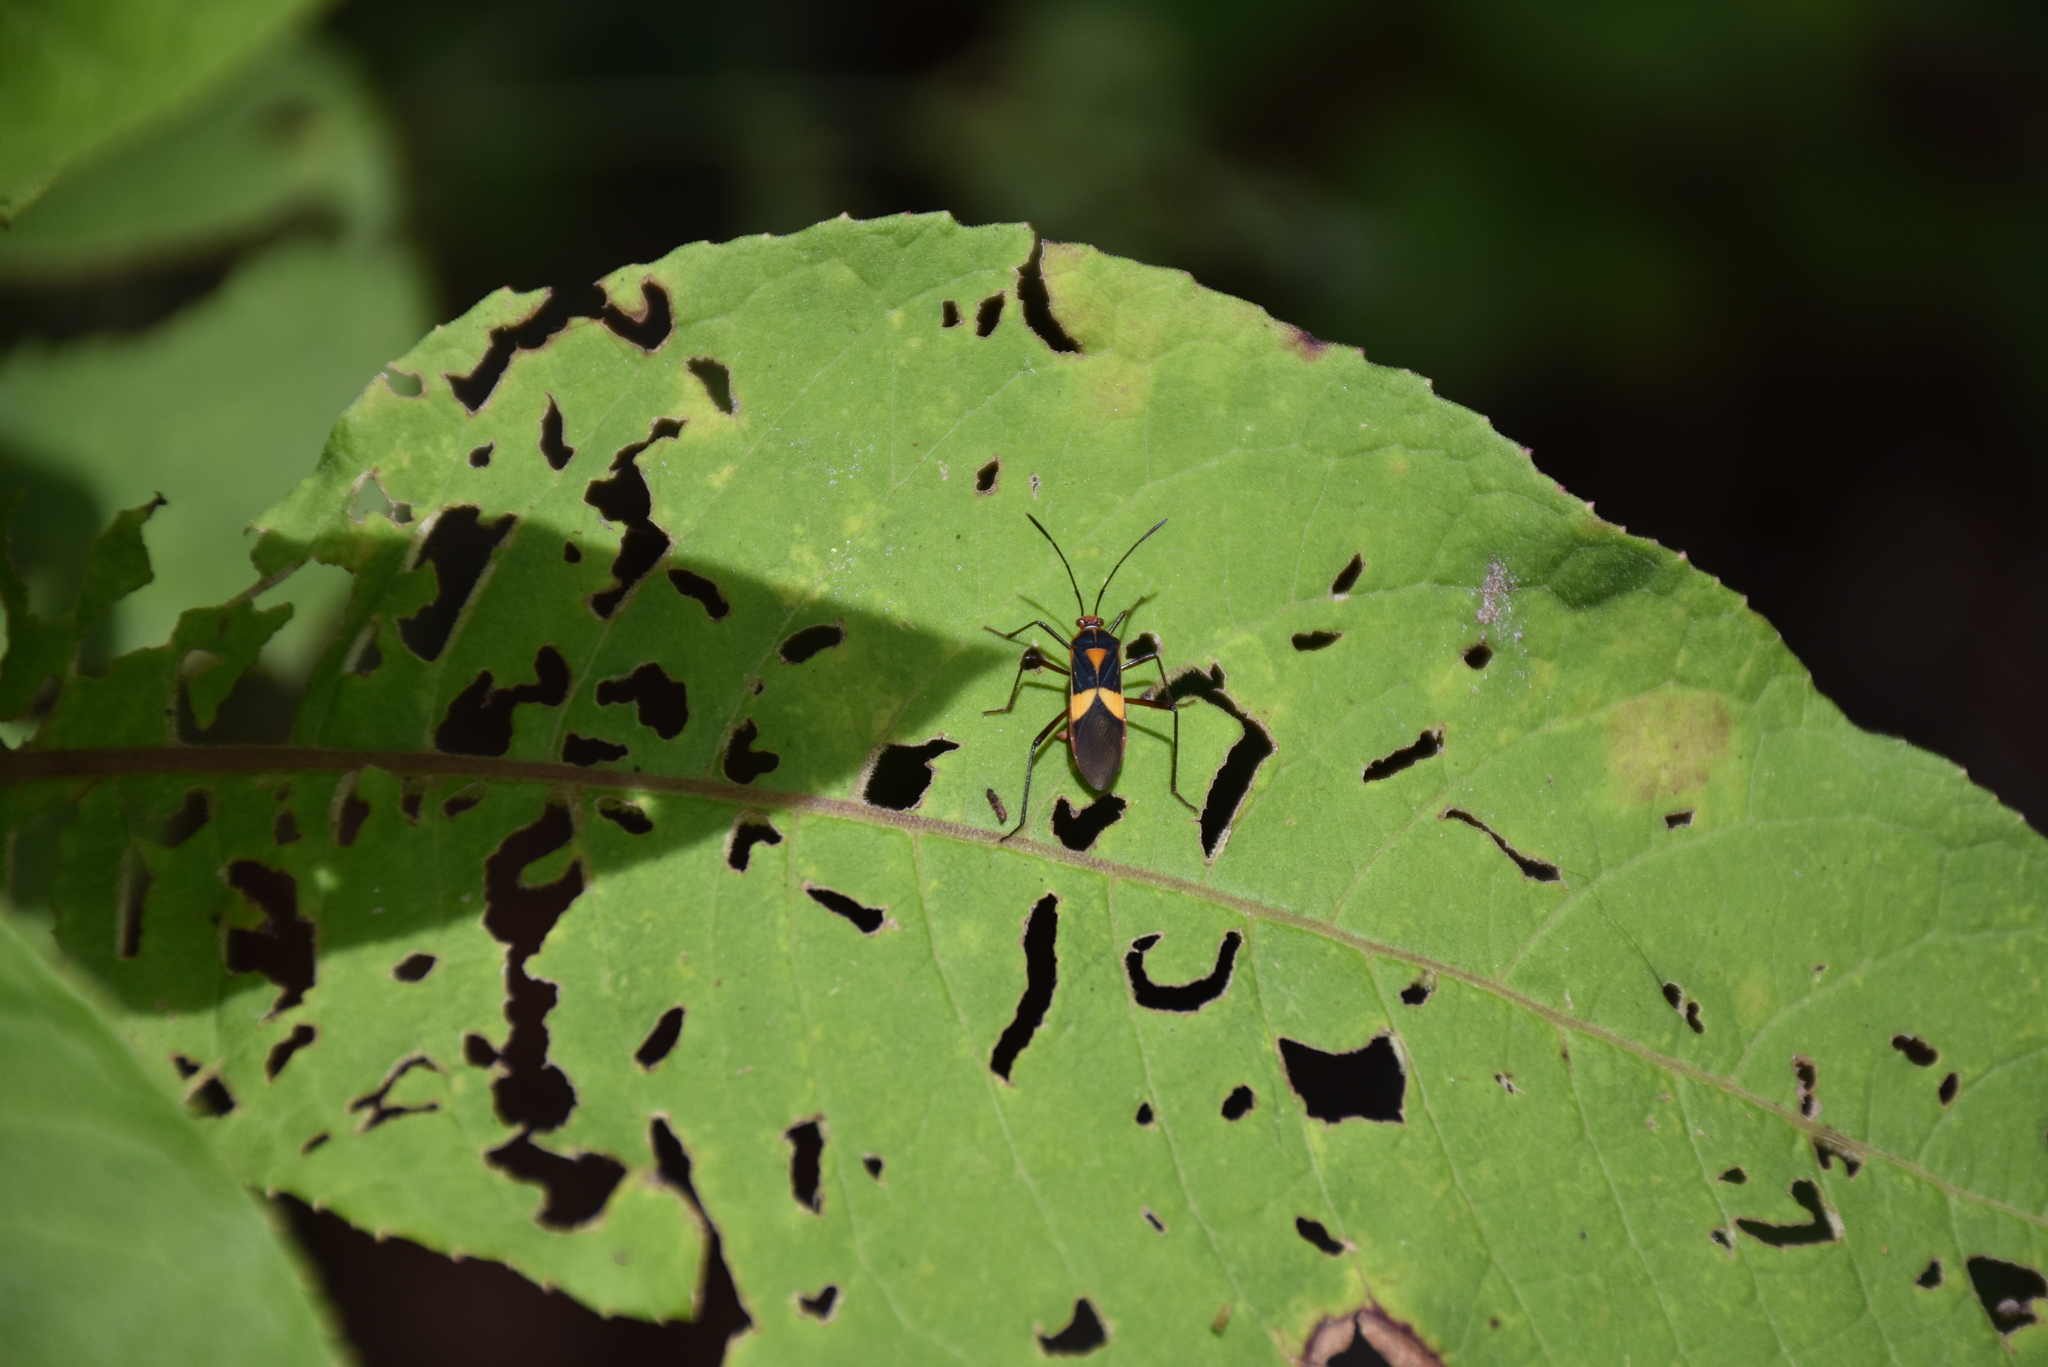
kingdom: Animalia
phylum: Arthropoda
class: Insecta
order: Hemiptera
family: Coreidae
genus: Hypselonotus
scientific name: Hypselonotus interruptus
